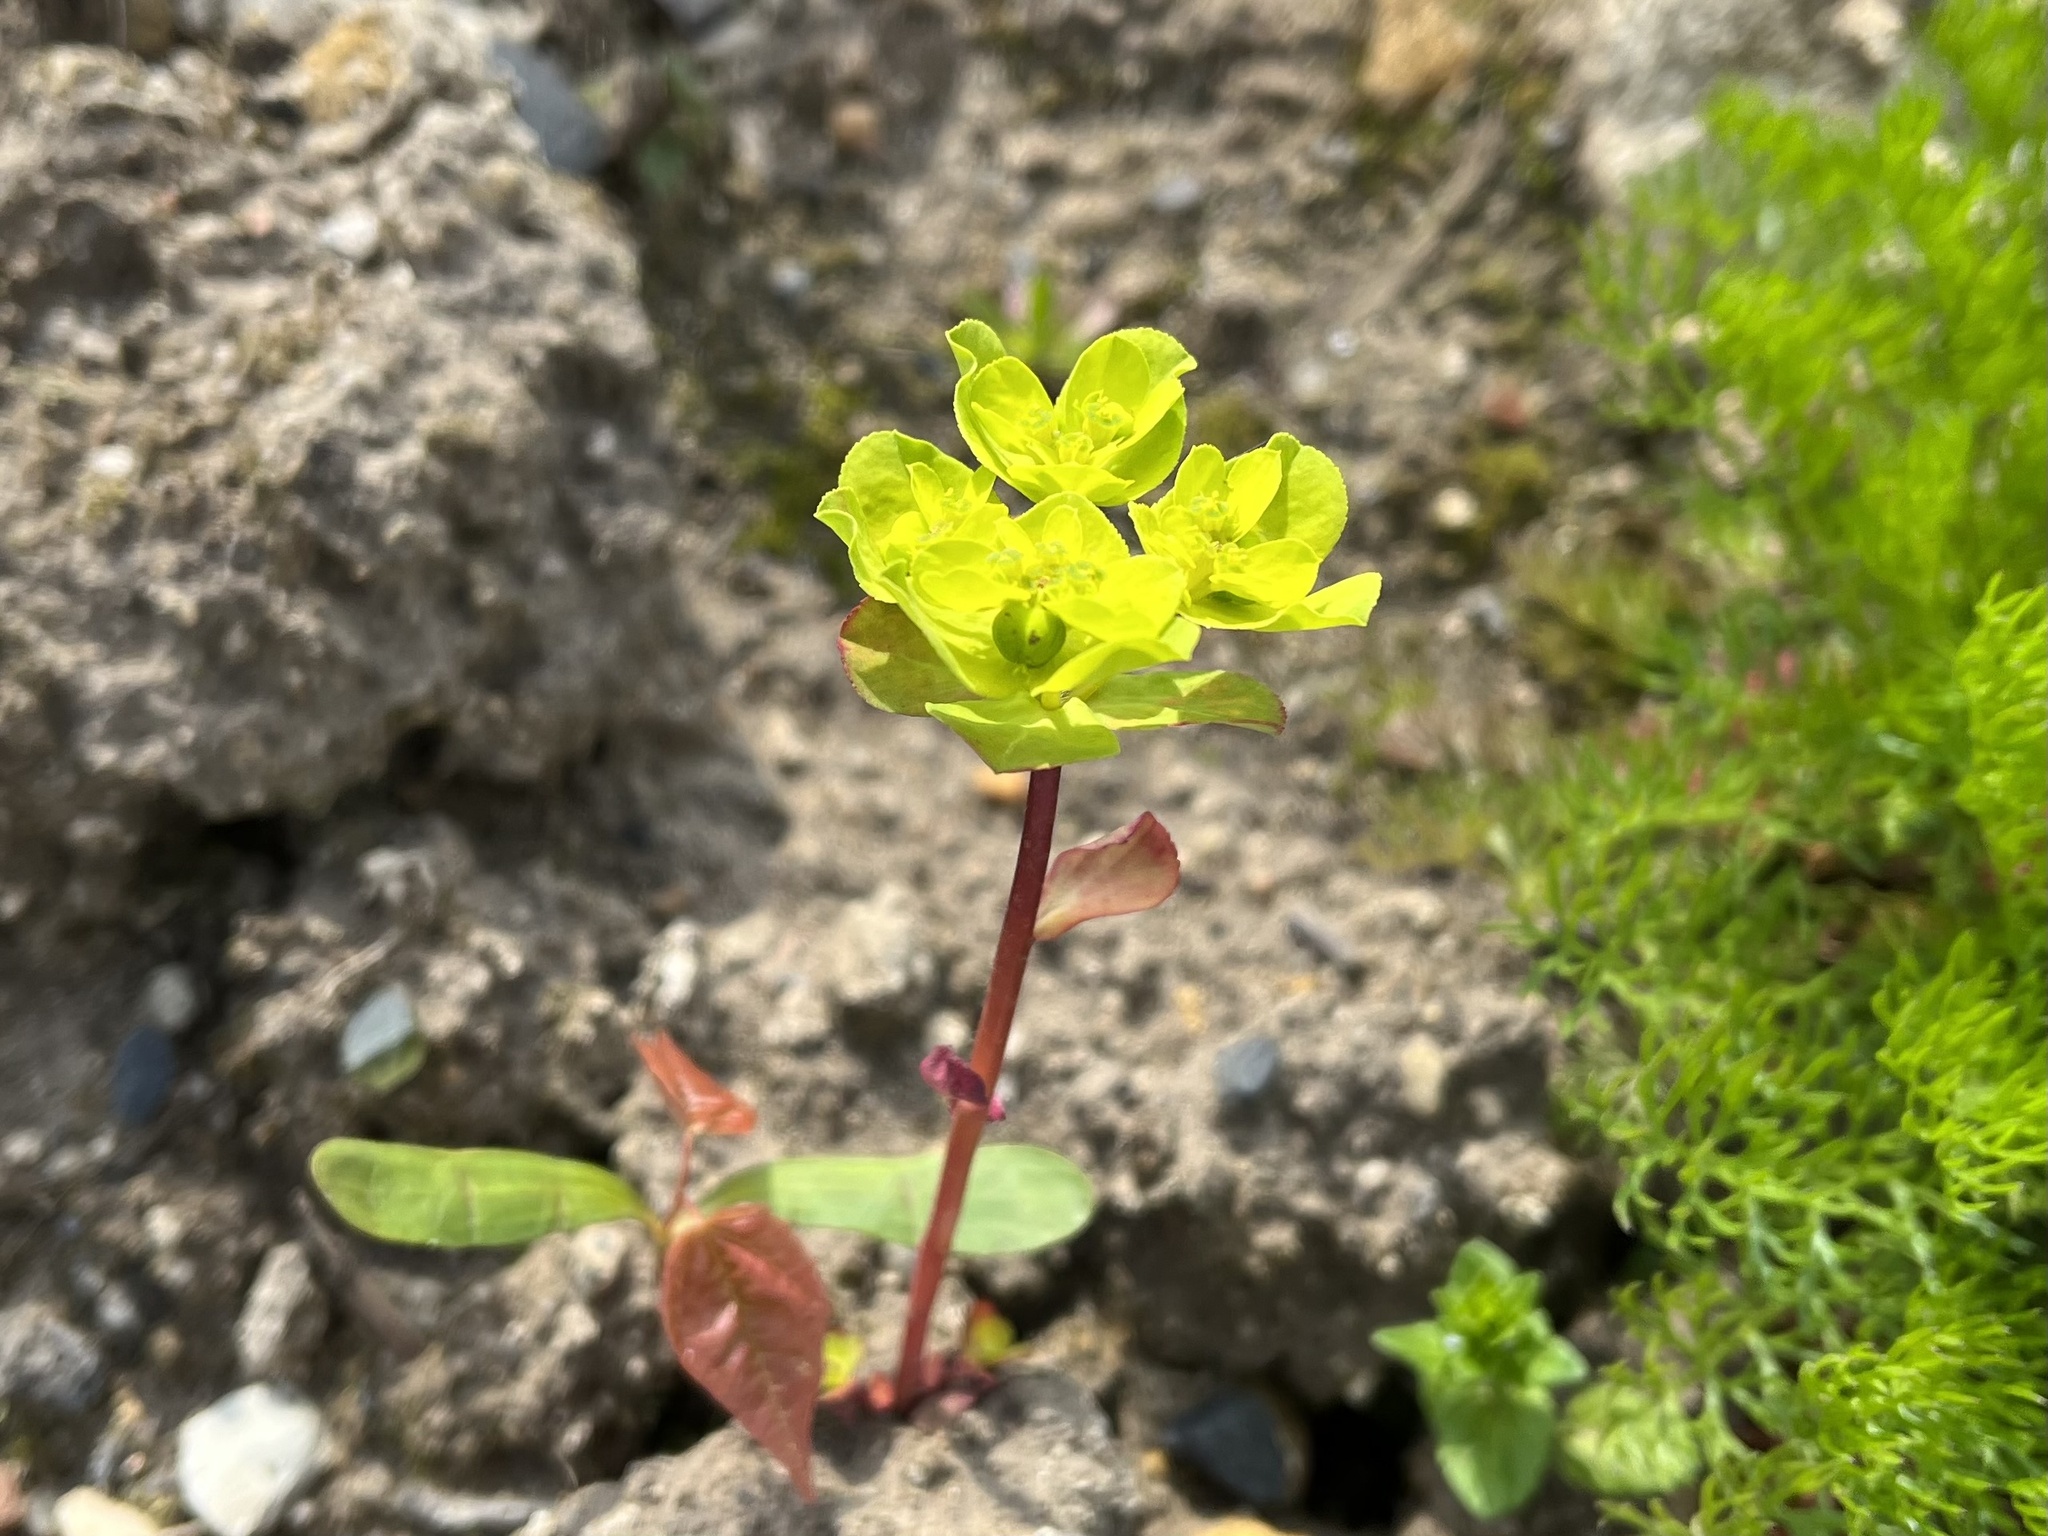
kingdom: Plantae
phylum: Tracheophyta
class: Magnoliopsida
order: Malpighiales
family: Euphorbiaceae
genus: Euphorbia
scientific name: Euphorbia helioscopia
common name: Sun spurge
